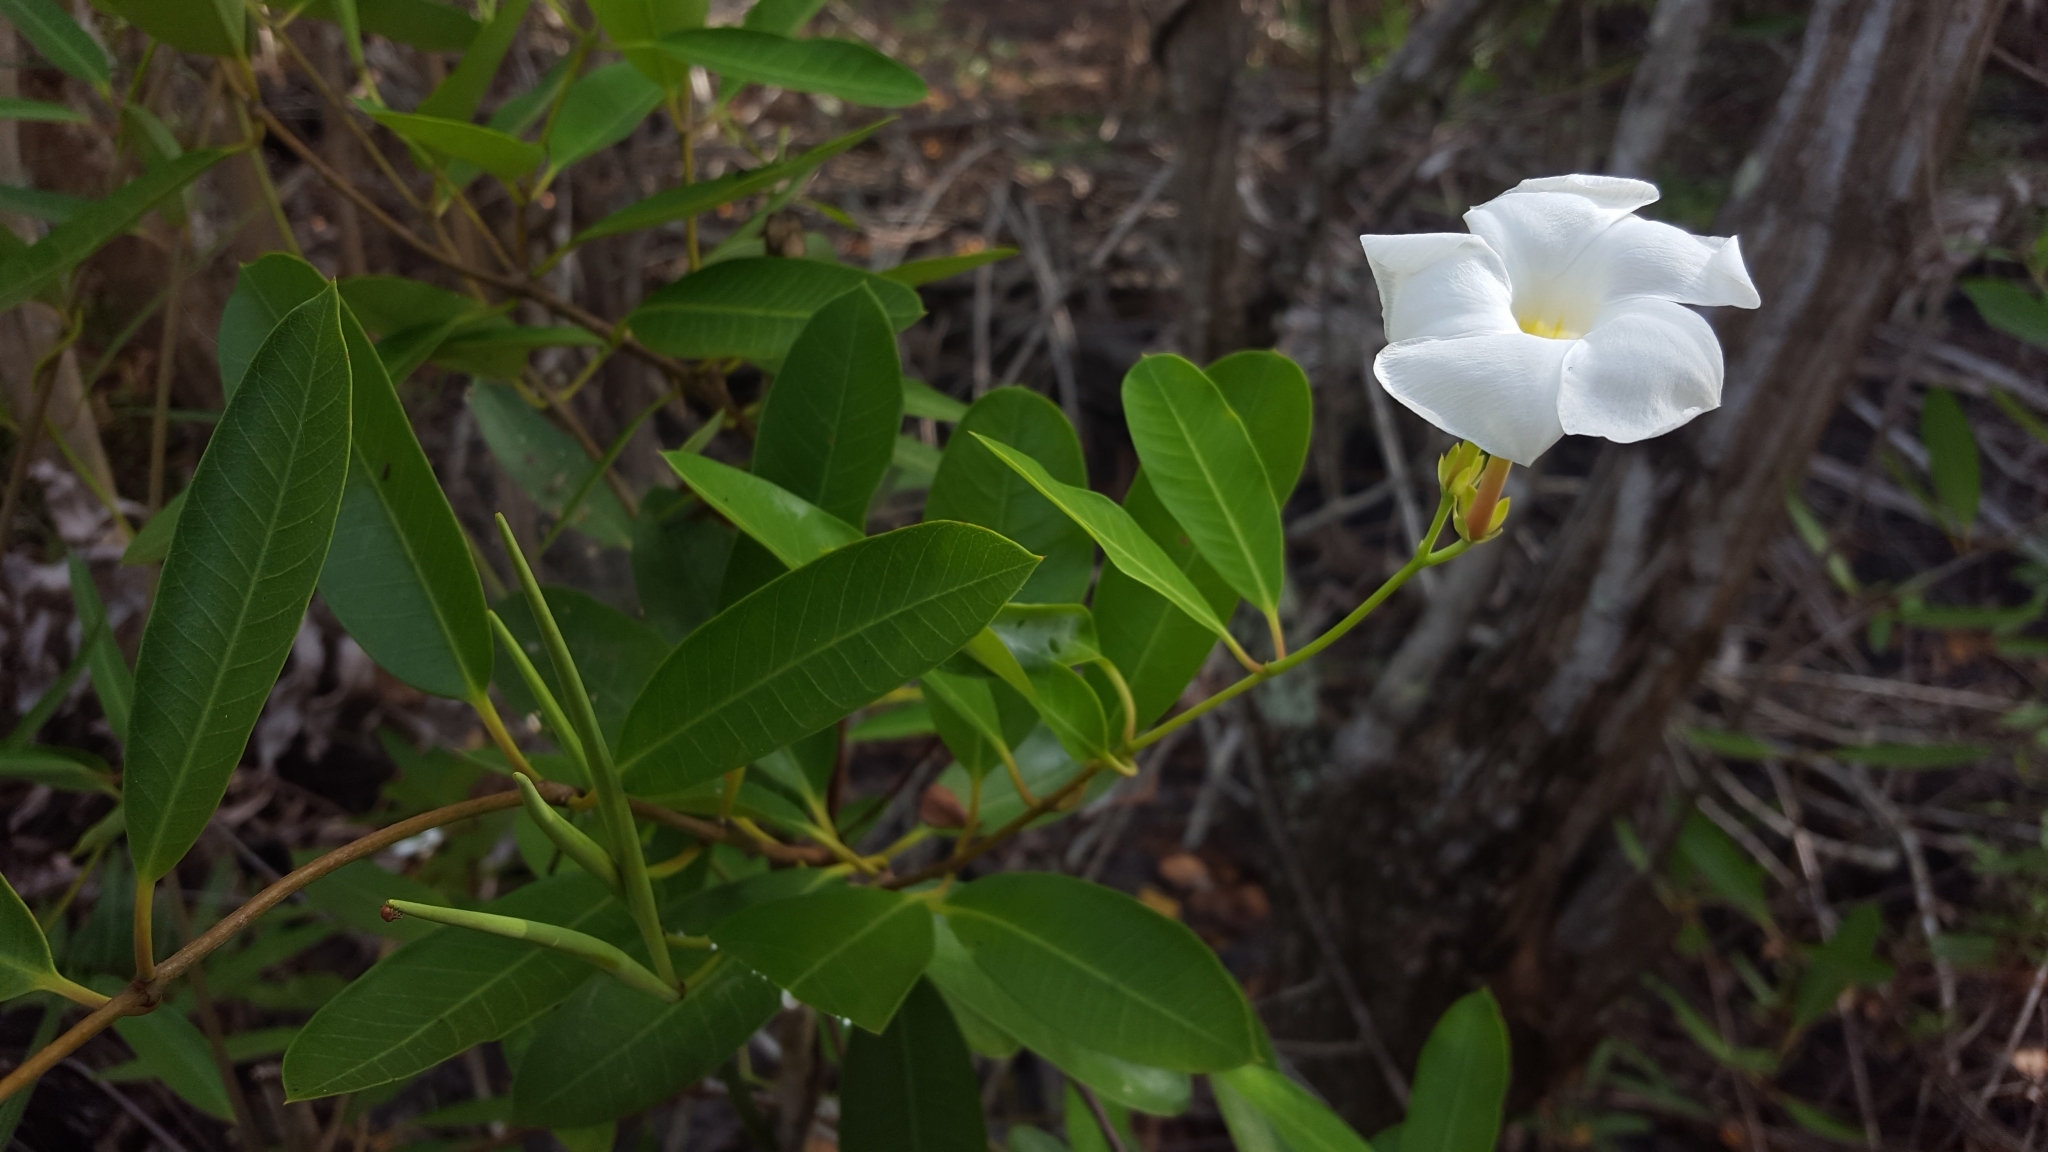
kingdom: Plantae
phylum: Tracheophyta
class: Magnoliopsida
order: Gentianales
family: Apocynaceae
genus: Rhabdadenia
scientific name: Rhabdadenia biflora
